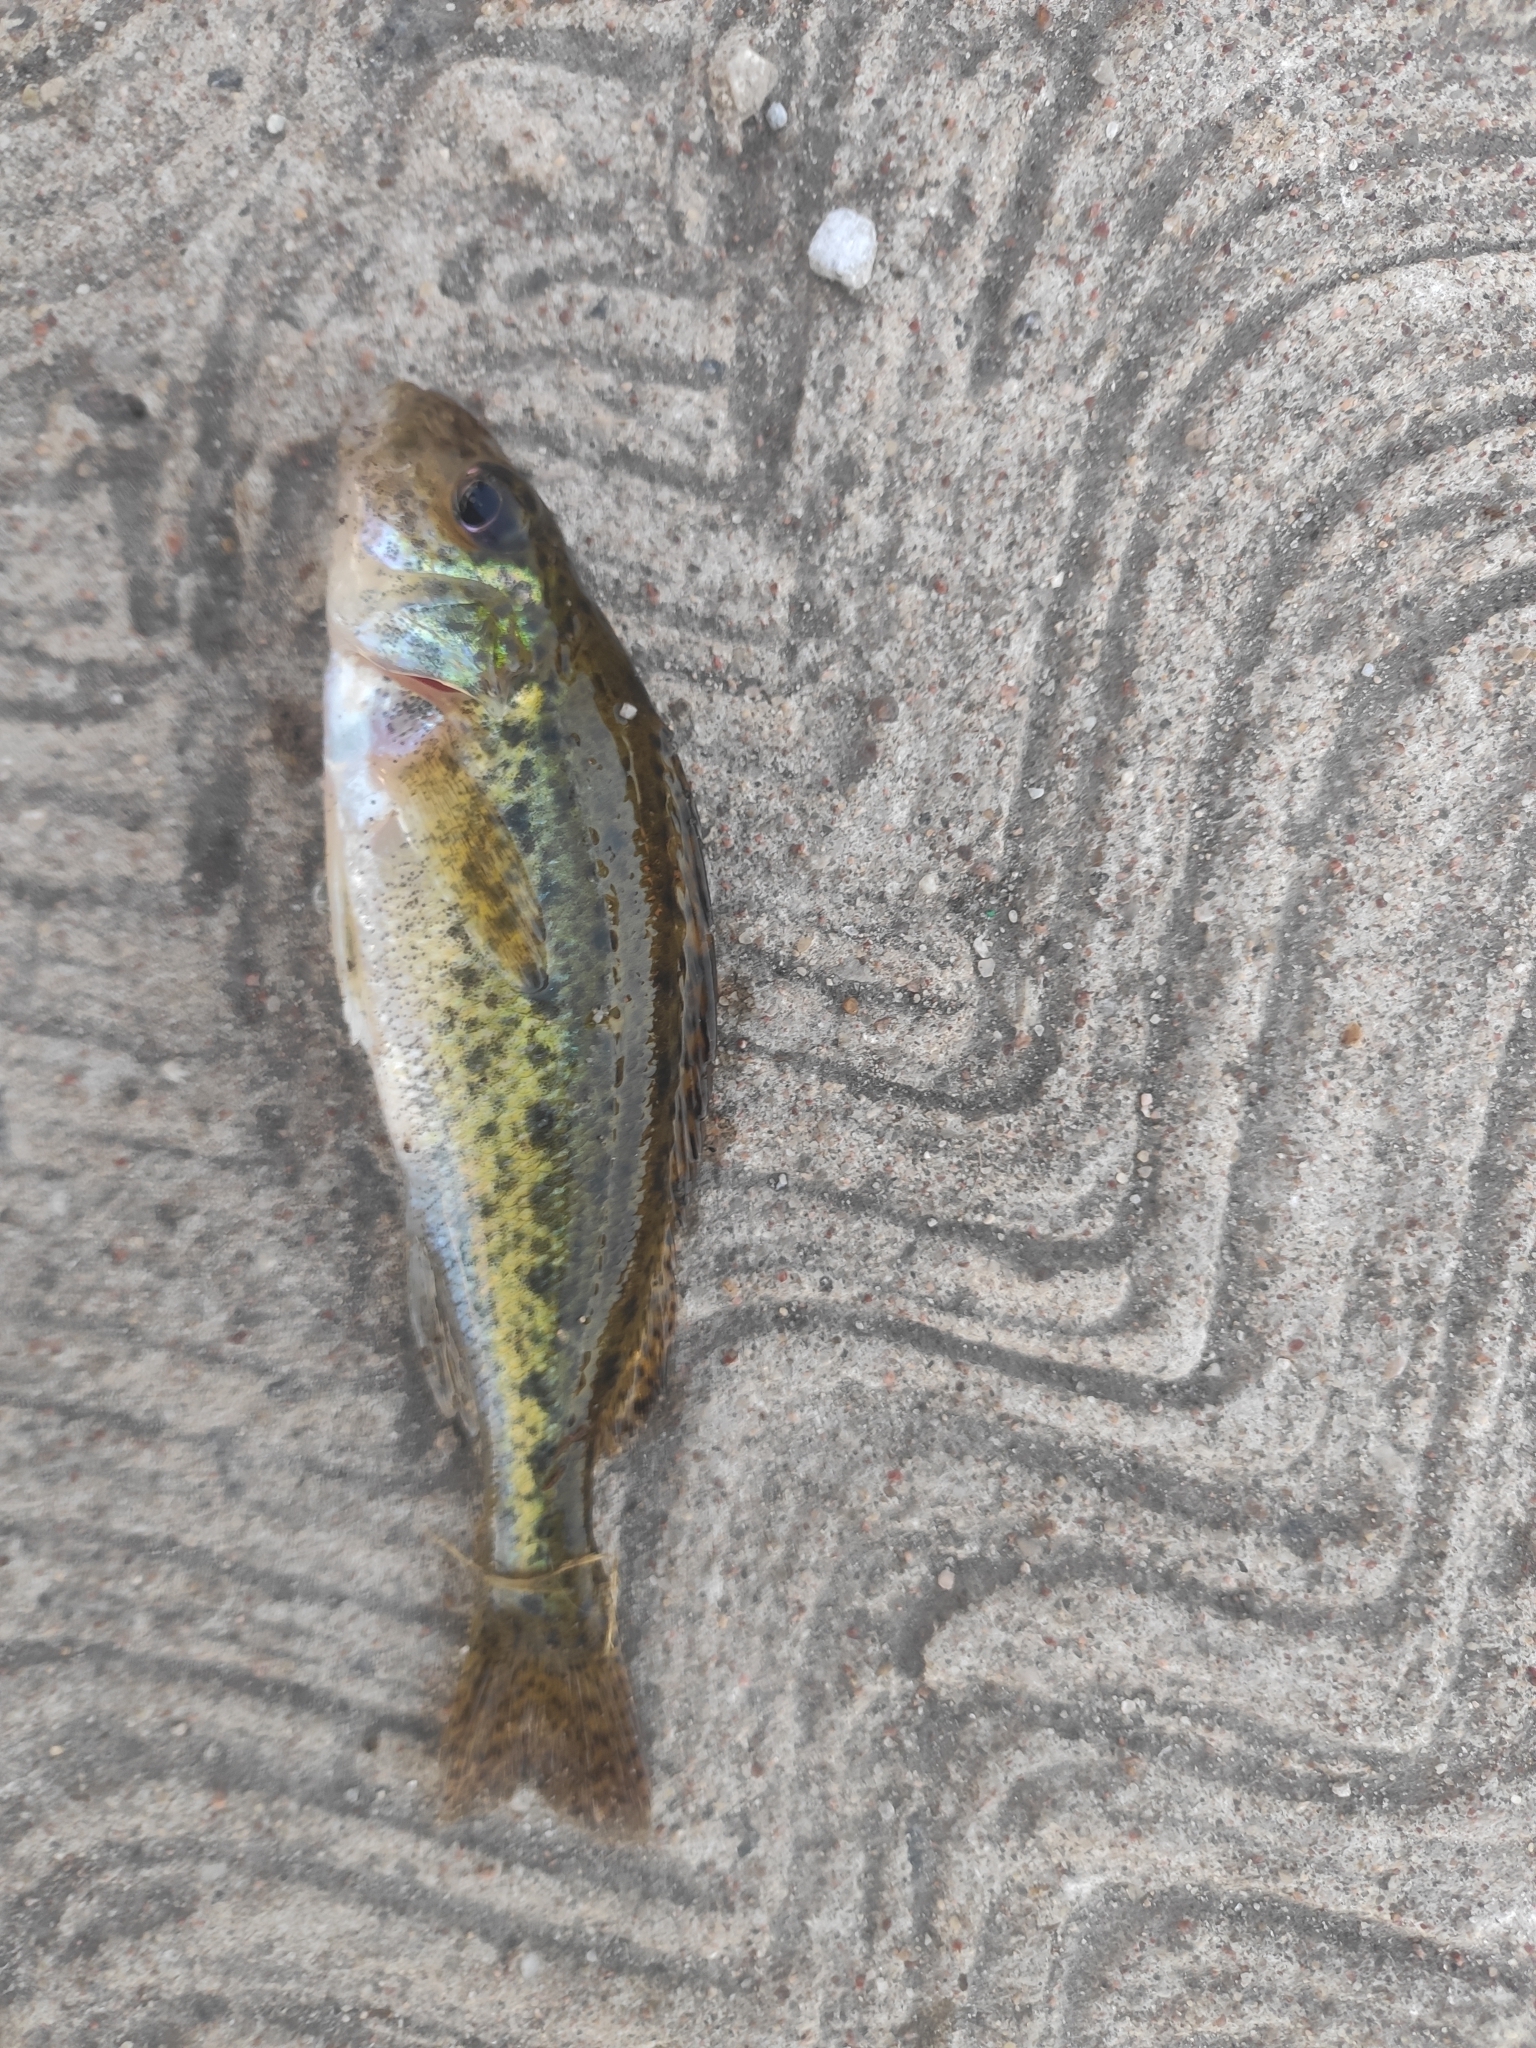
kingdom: Animalia
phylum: Chordata
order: Perciformes
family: Percidae
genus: Gymnocephalus
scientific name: Gymnocephalus cernua
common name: Ruffe
